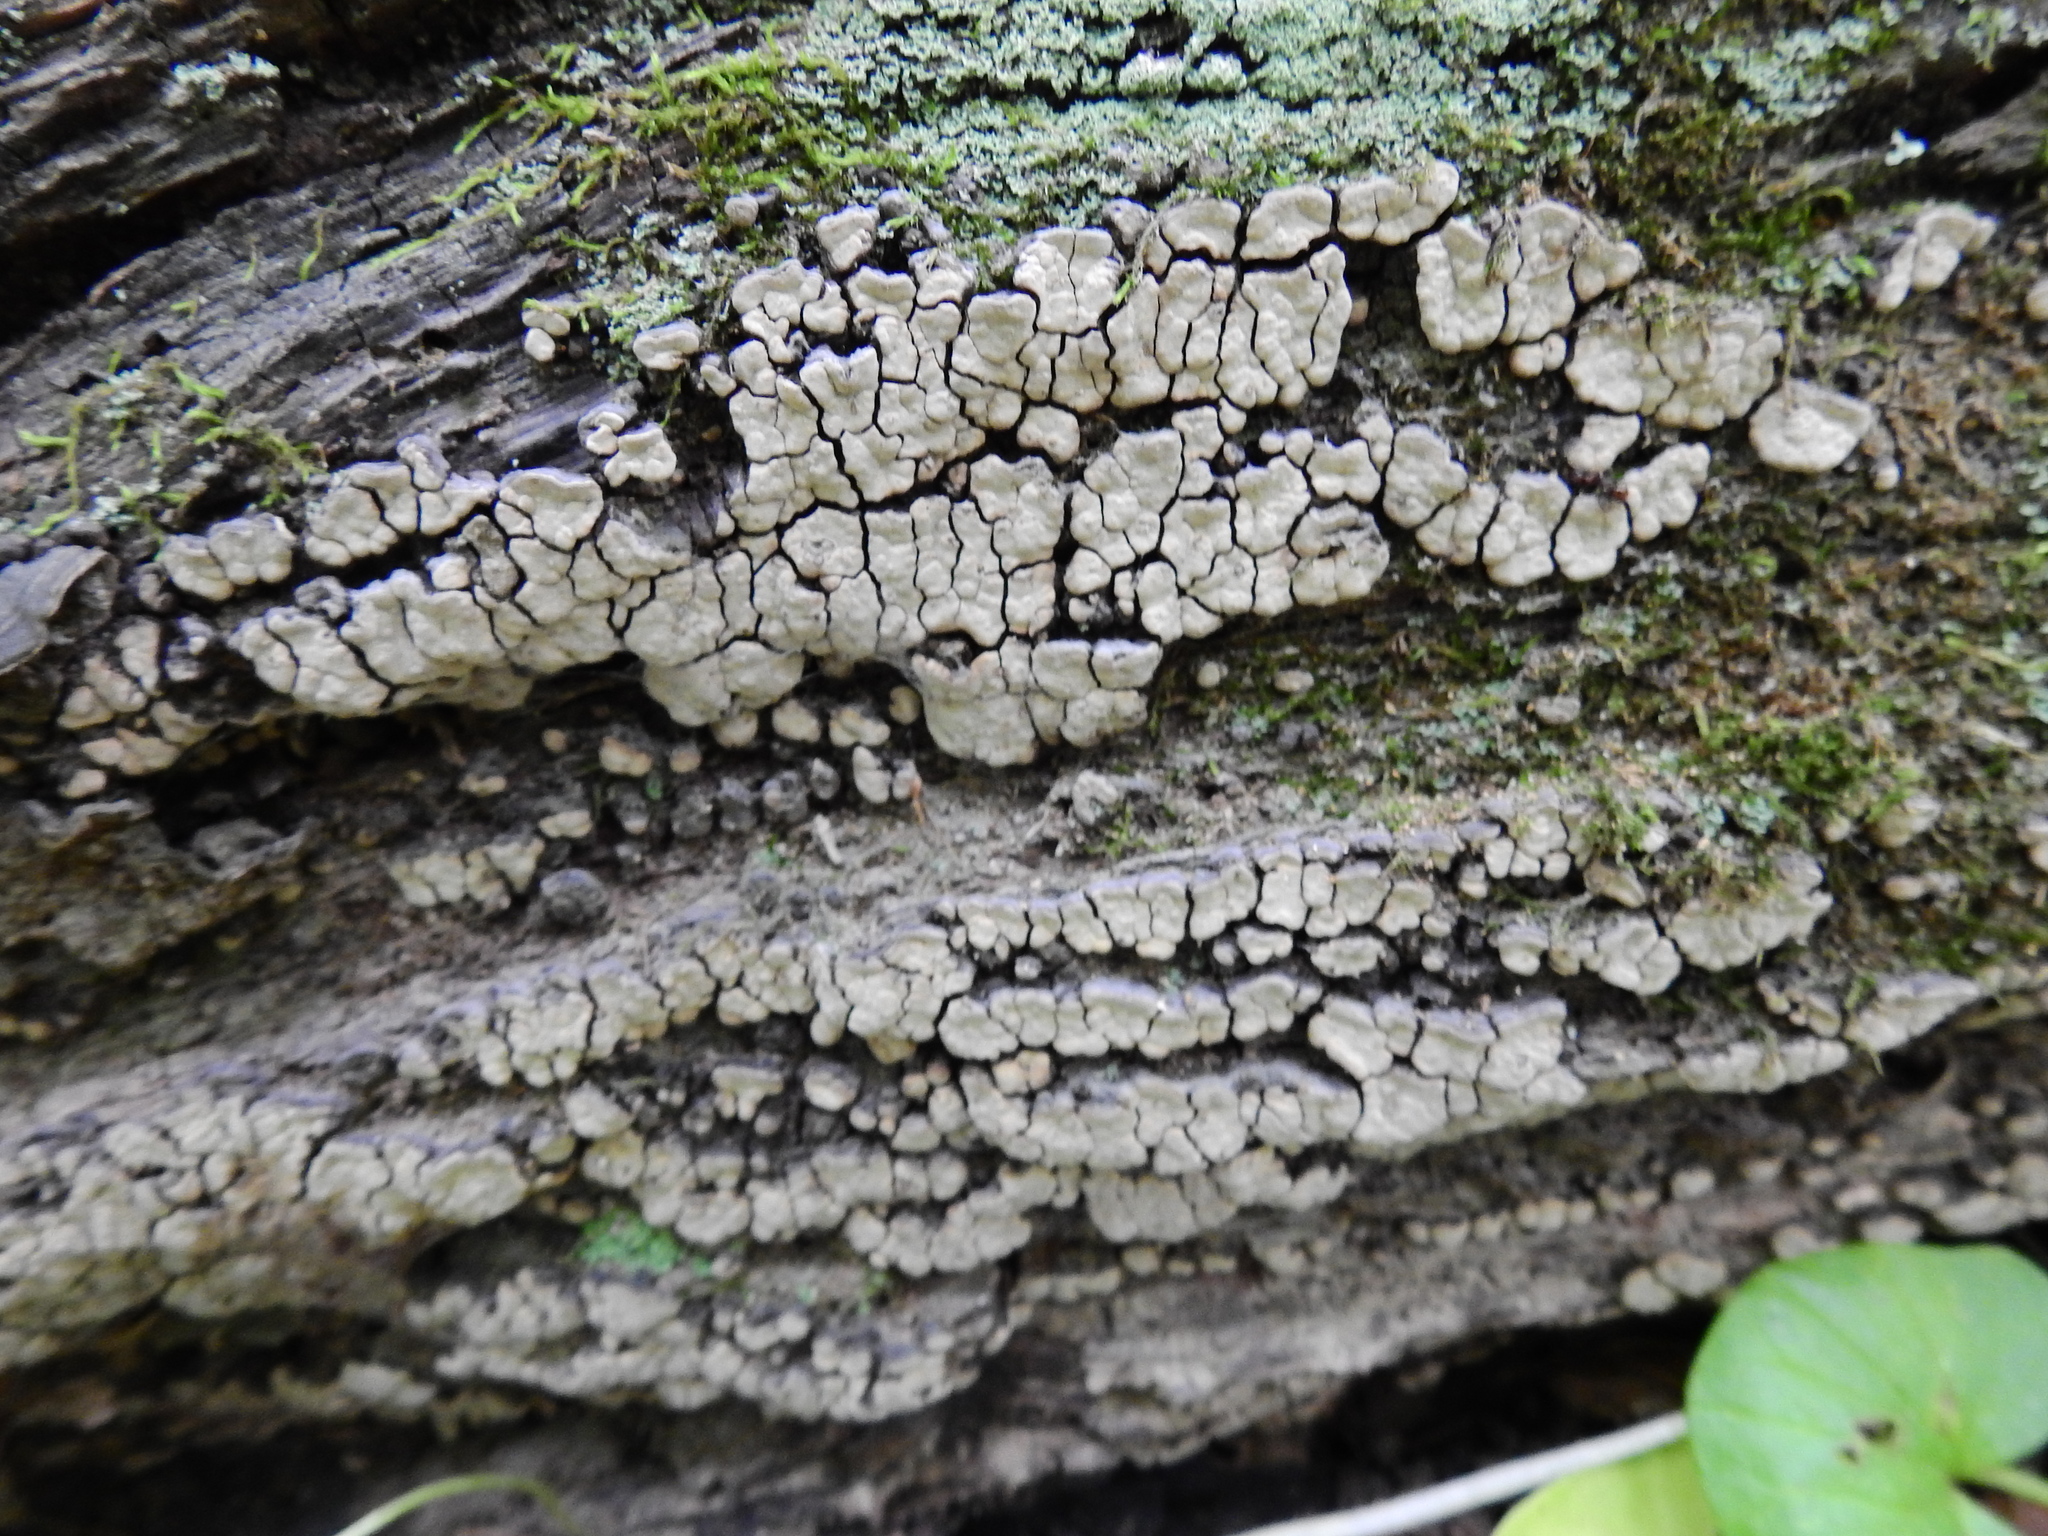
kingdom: Fungi
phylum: Basidiomycota
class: Agaricomycetes
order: Russulales
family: Stereaceae
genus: Xylobolus
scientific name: Xylobolus frustulatus
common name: Ceramic parchment
